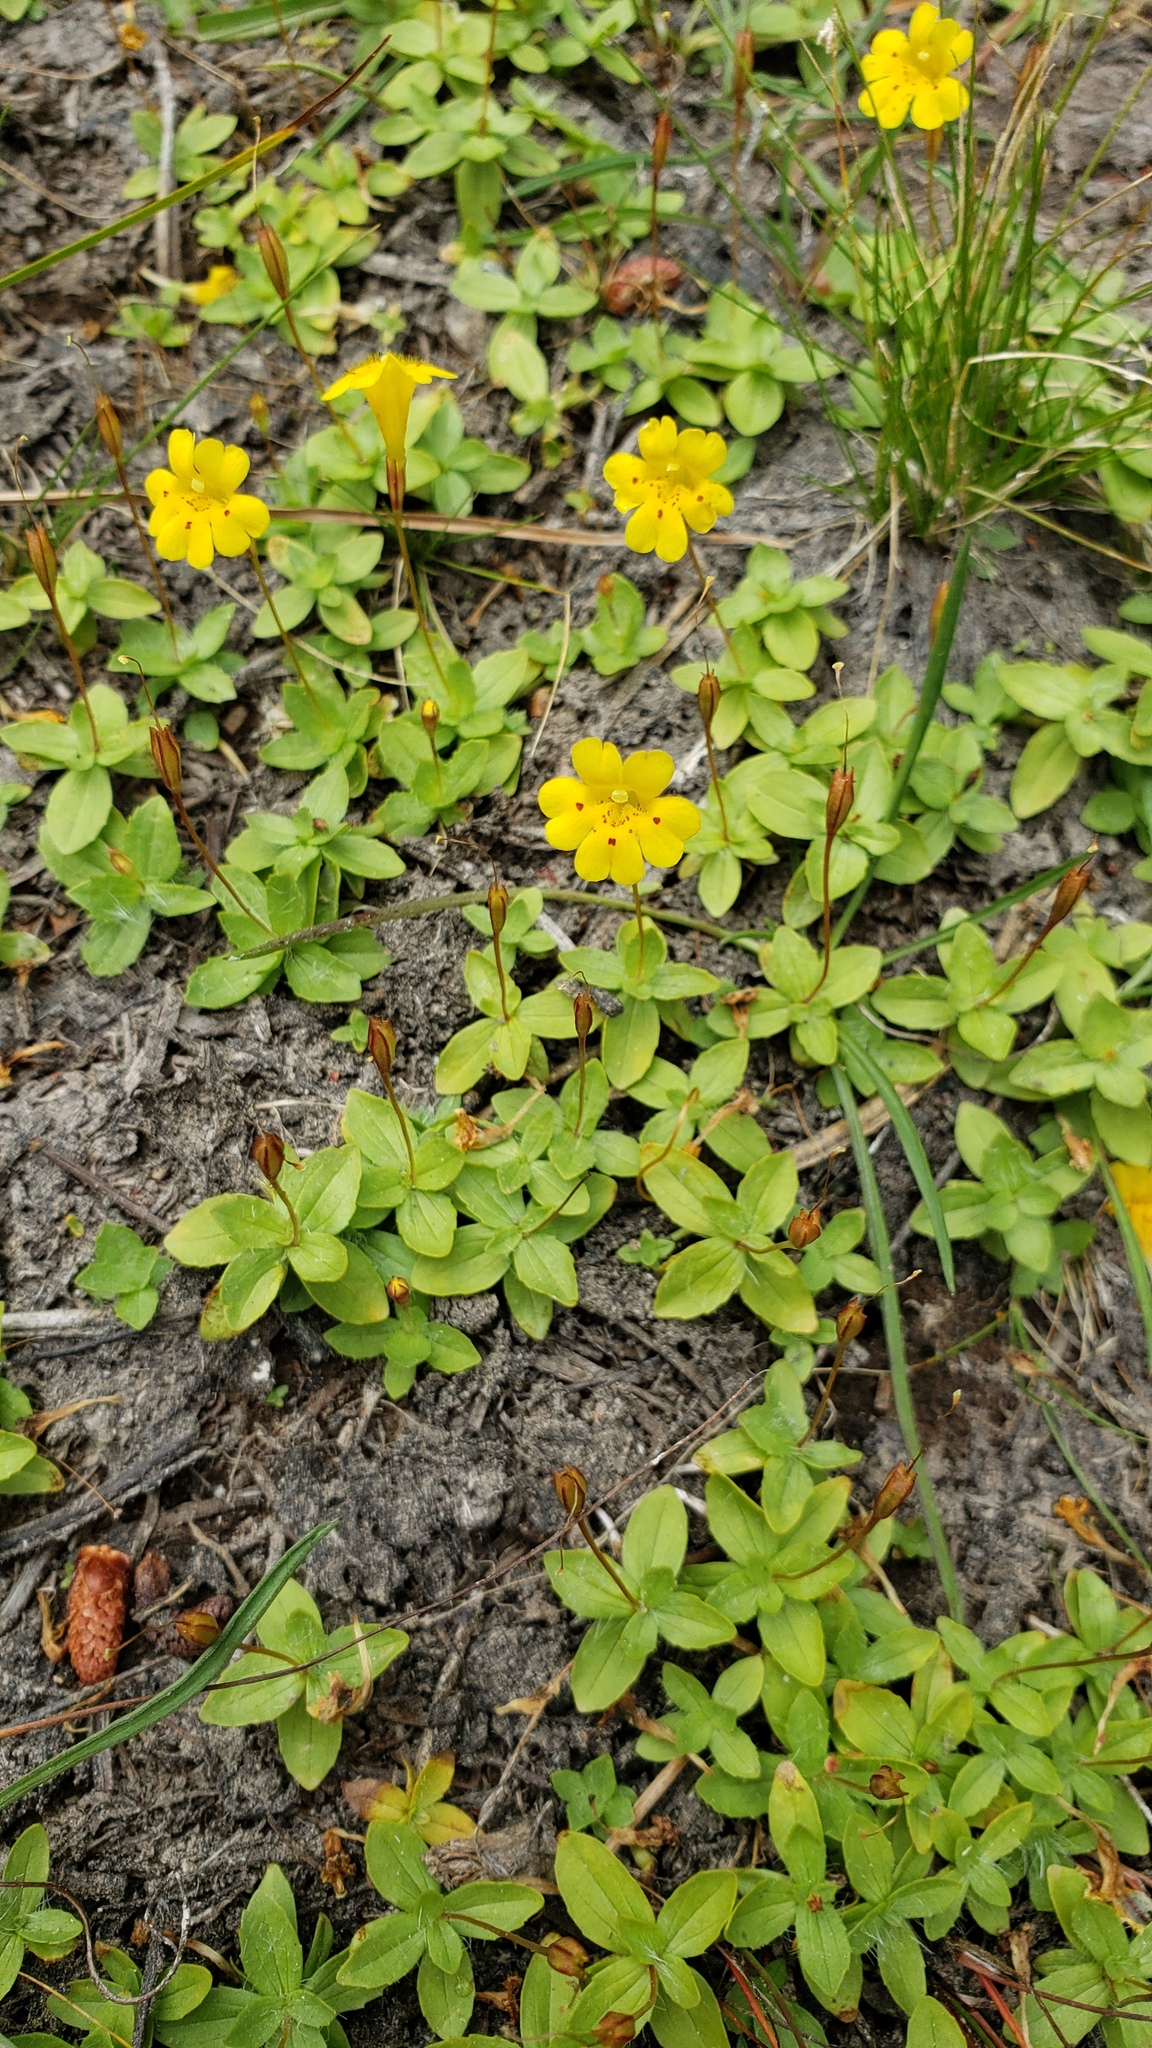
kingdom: Plantae
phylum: Tracheophyta
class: Magnoliopsida
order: Lamiales
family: Phrymaceae
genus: Erythranthe
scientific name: Erythranthe primuloides
